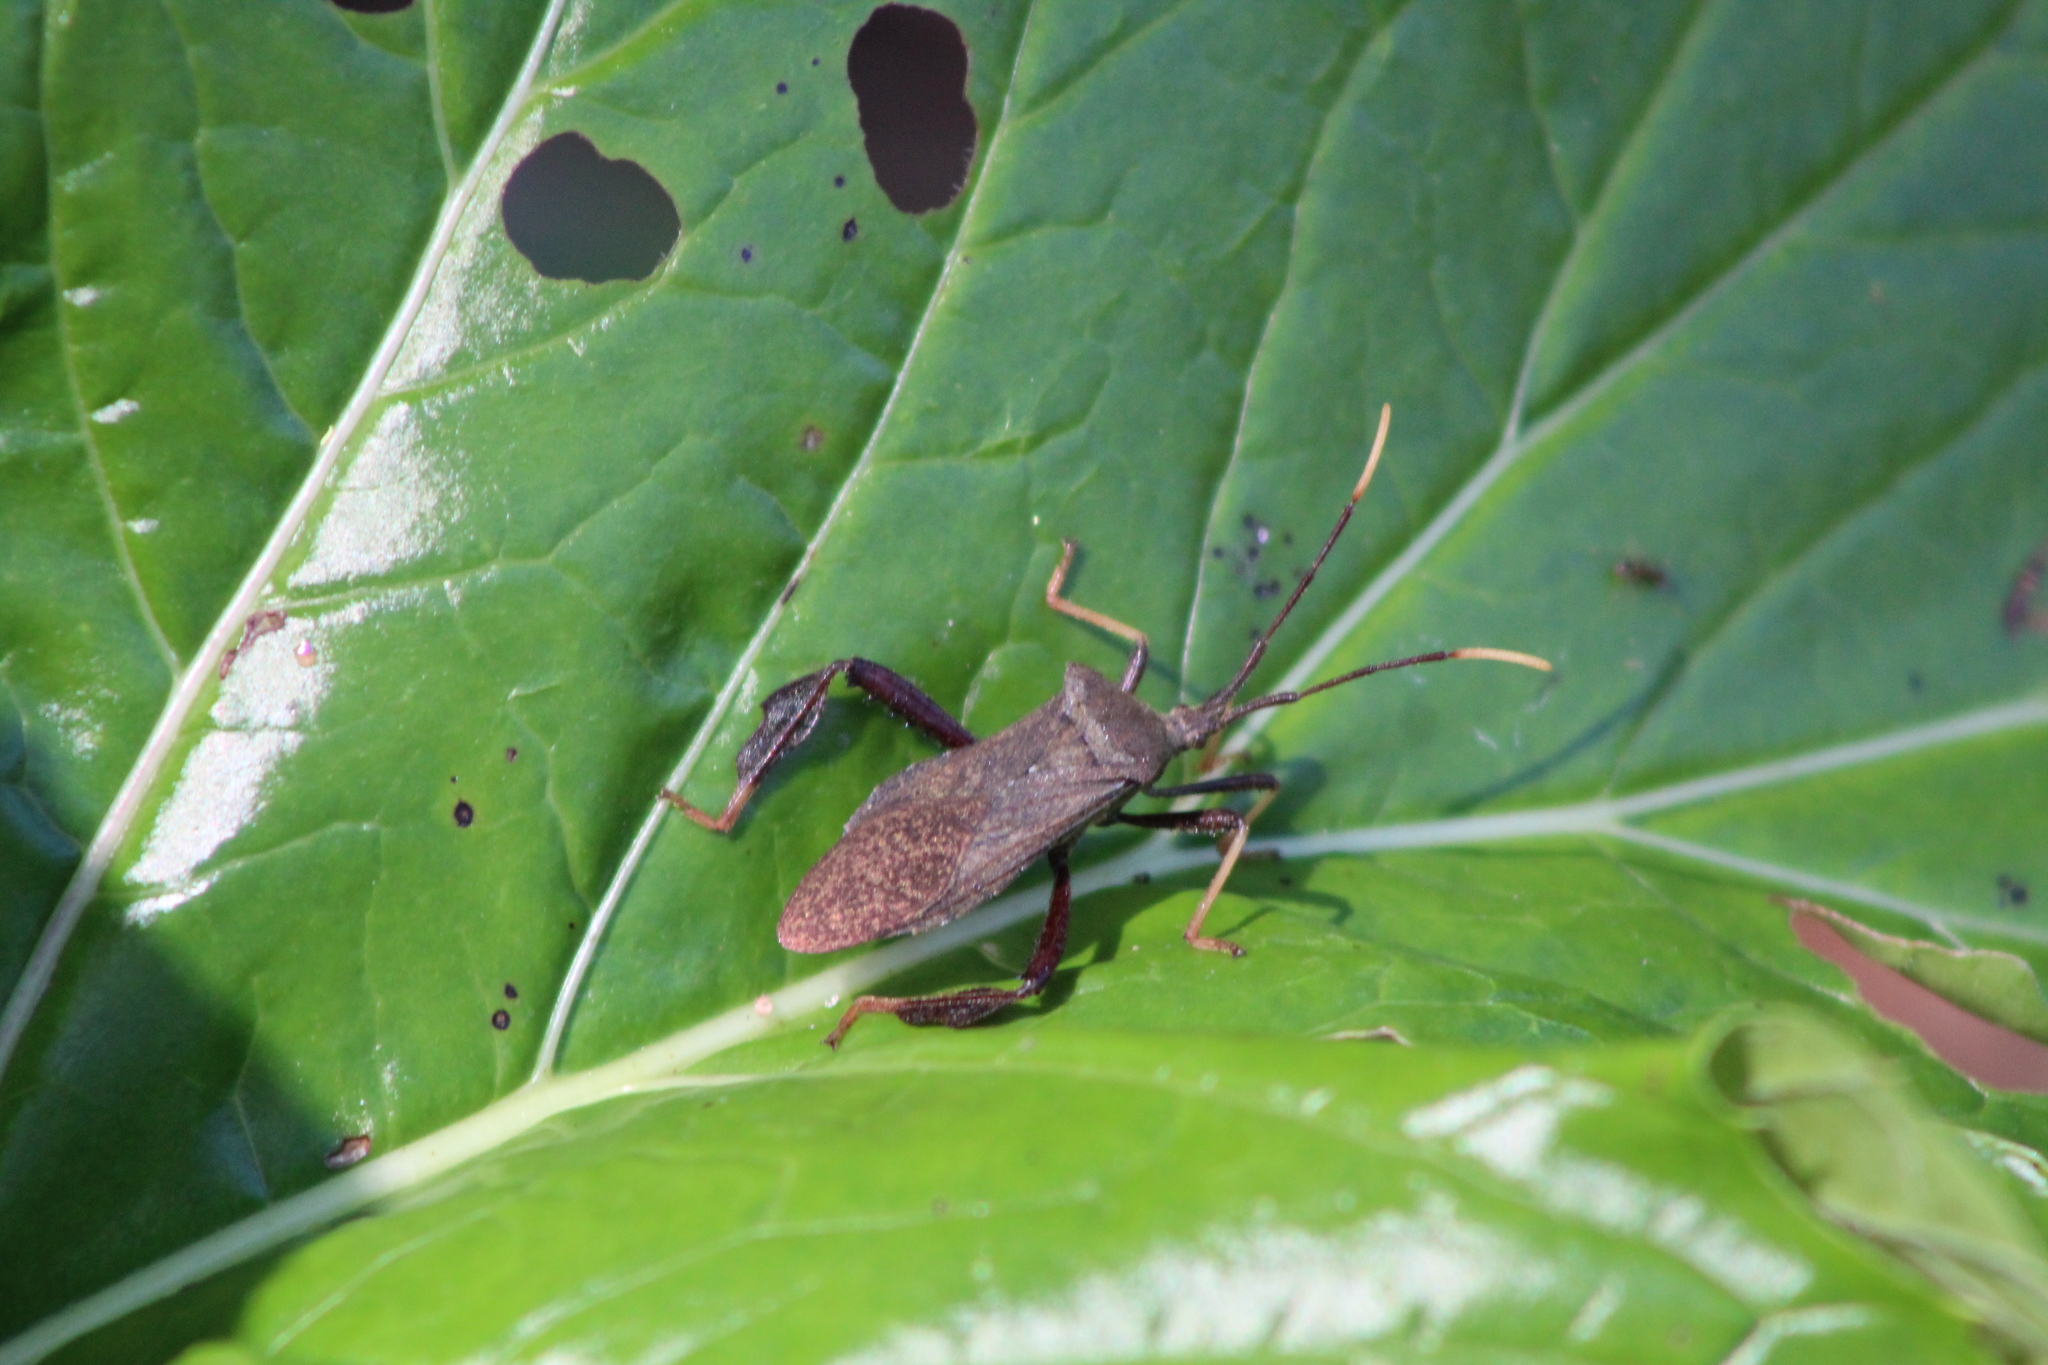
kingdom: Animalia
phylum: Arthropoda
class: Insecta
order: Hemiptera
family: Coreidae
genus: Acanthocephala
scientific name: Acanthocephala terminalis
